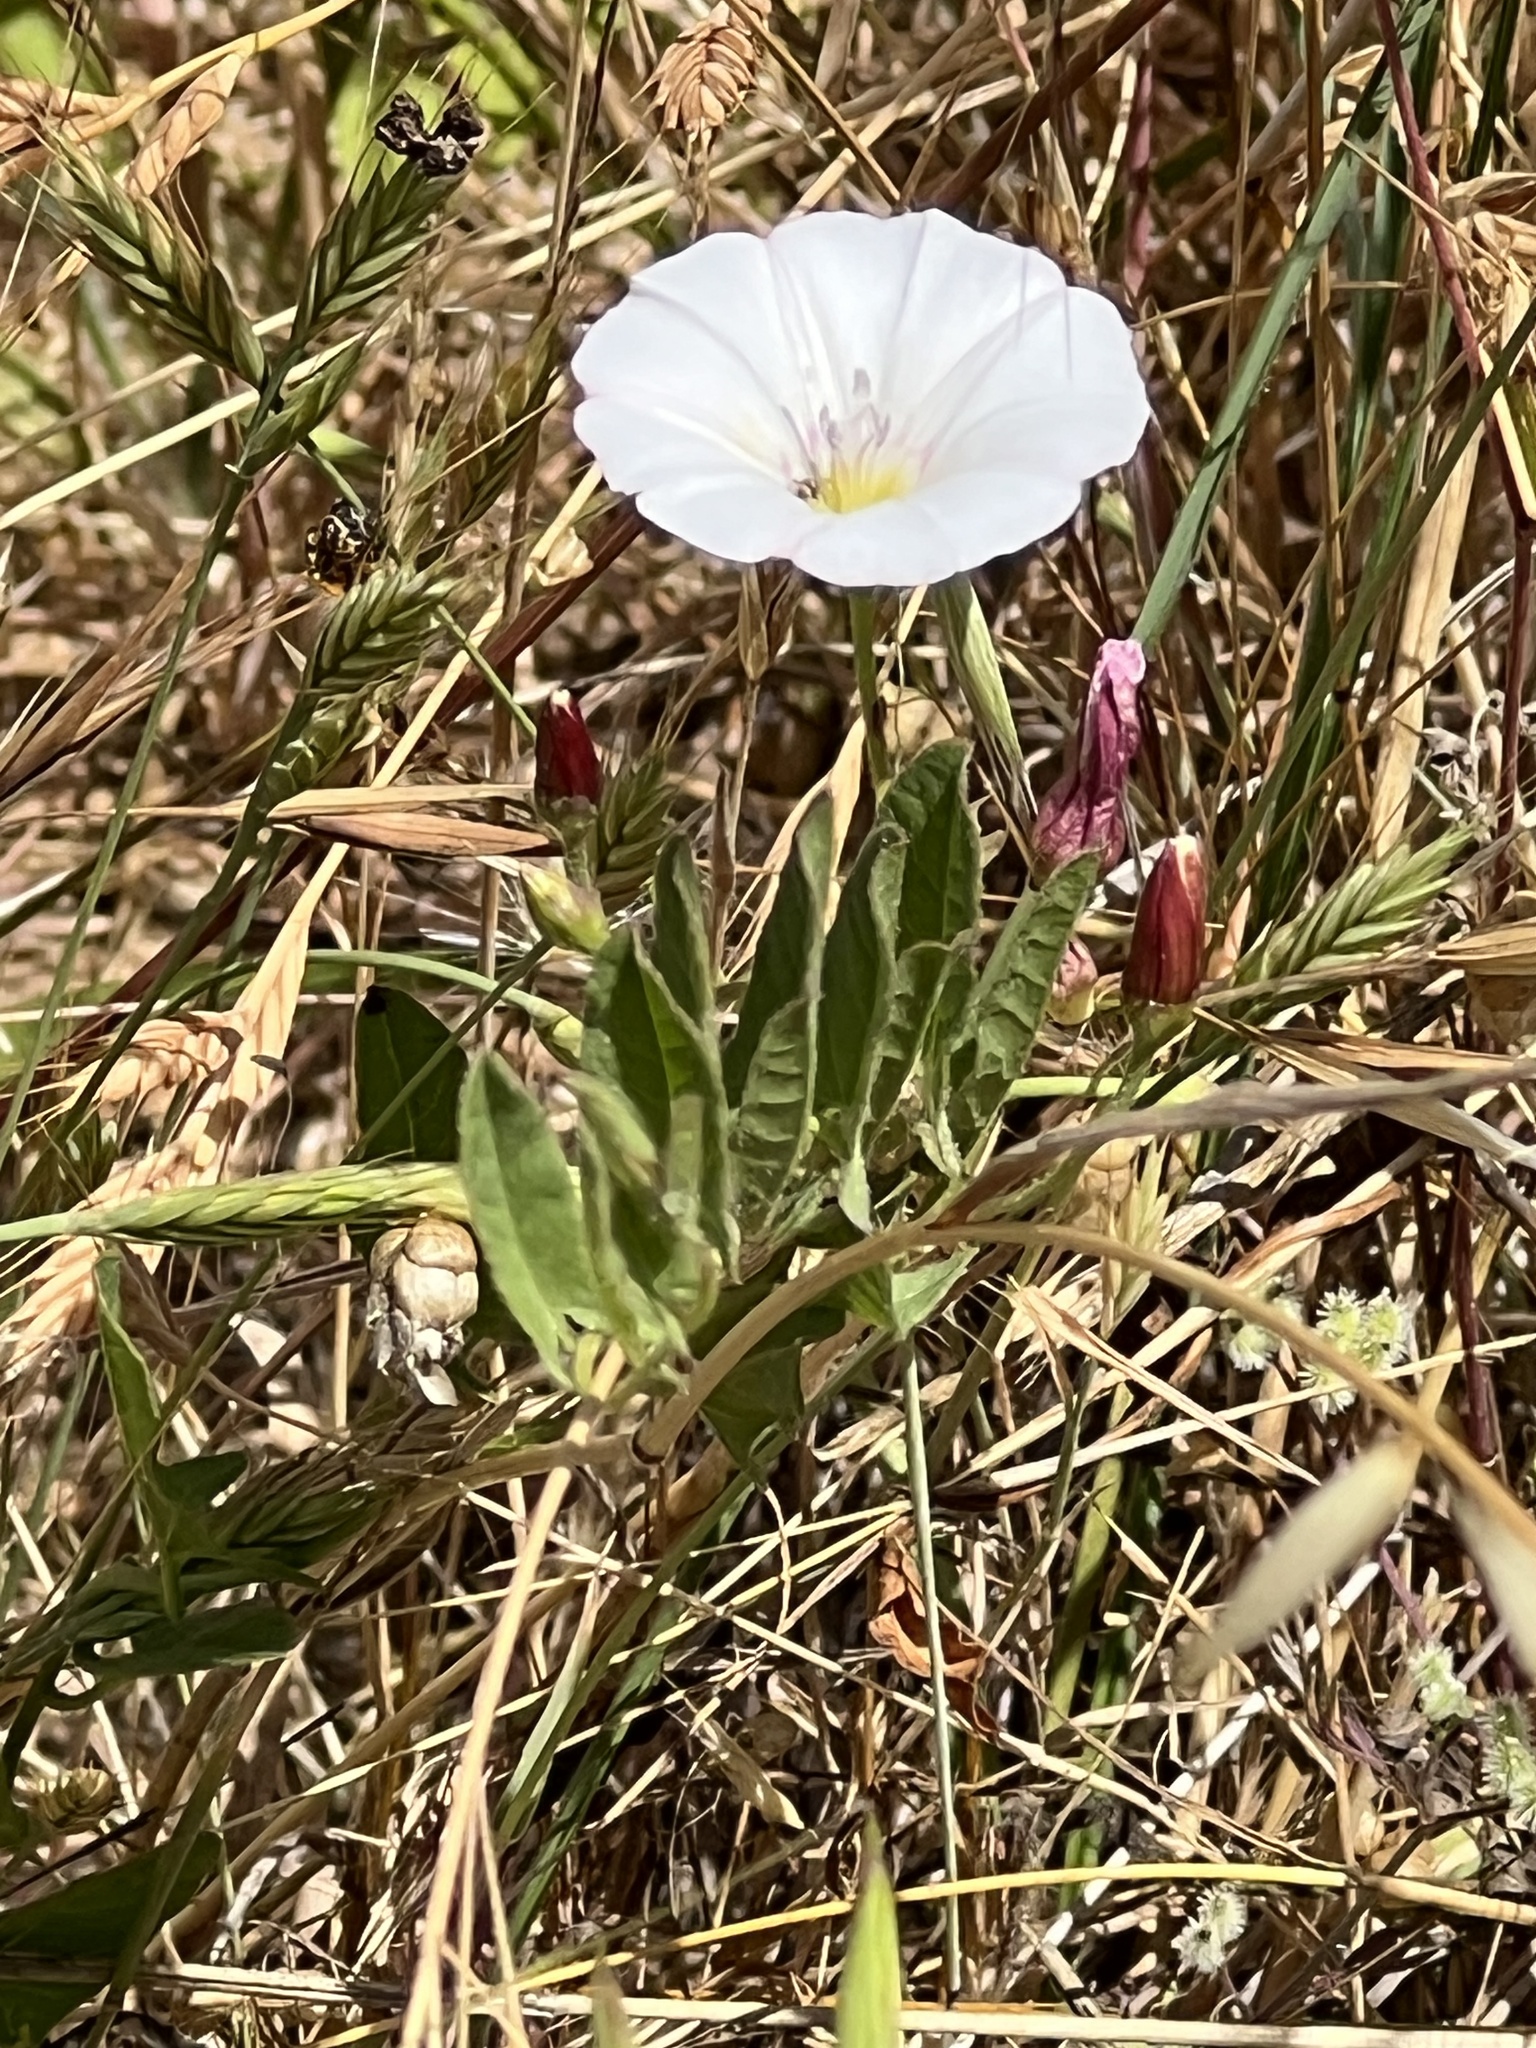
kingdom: Plantae
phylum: Tracheophyta
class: Magnoliopsida
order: Solanales
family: Convolvulaceae
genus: Convolvulus
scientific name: Convolvulus arvensis
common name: Field bindweed
